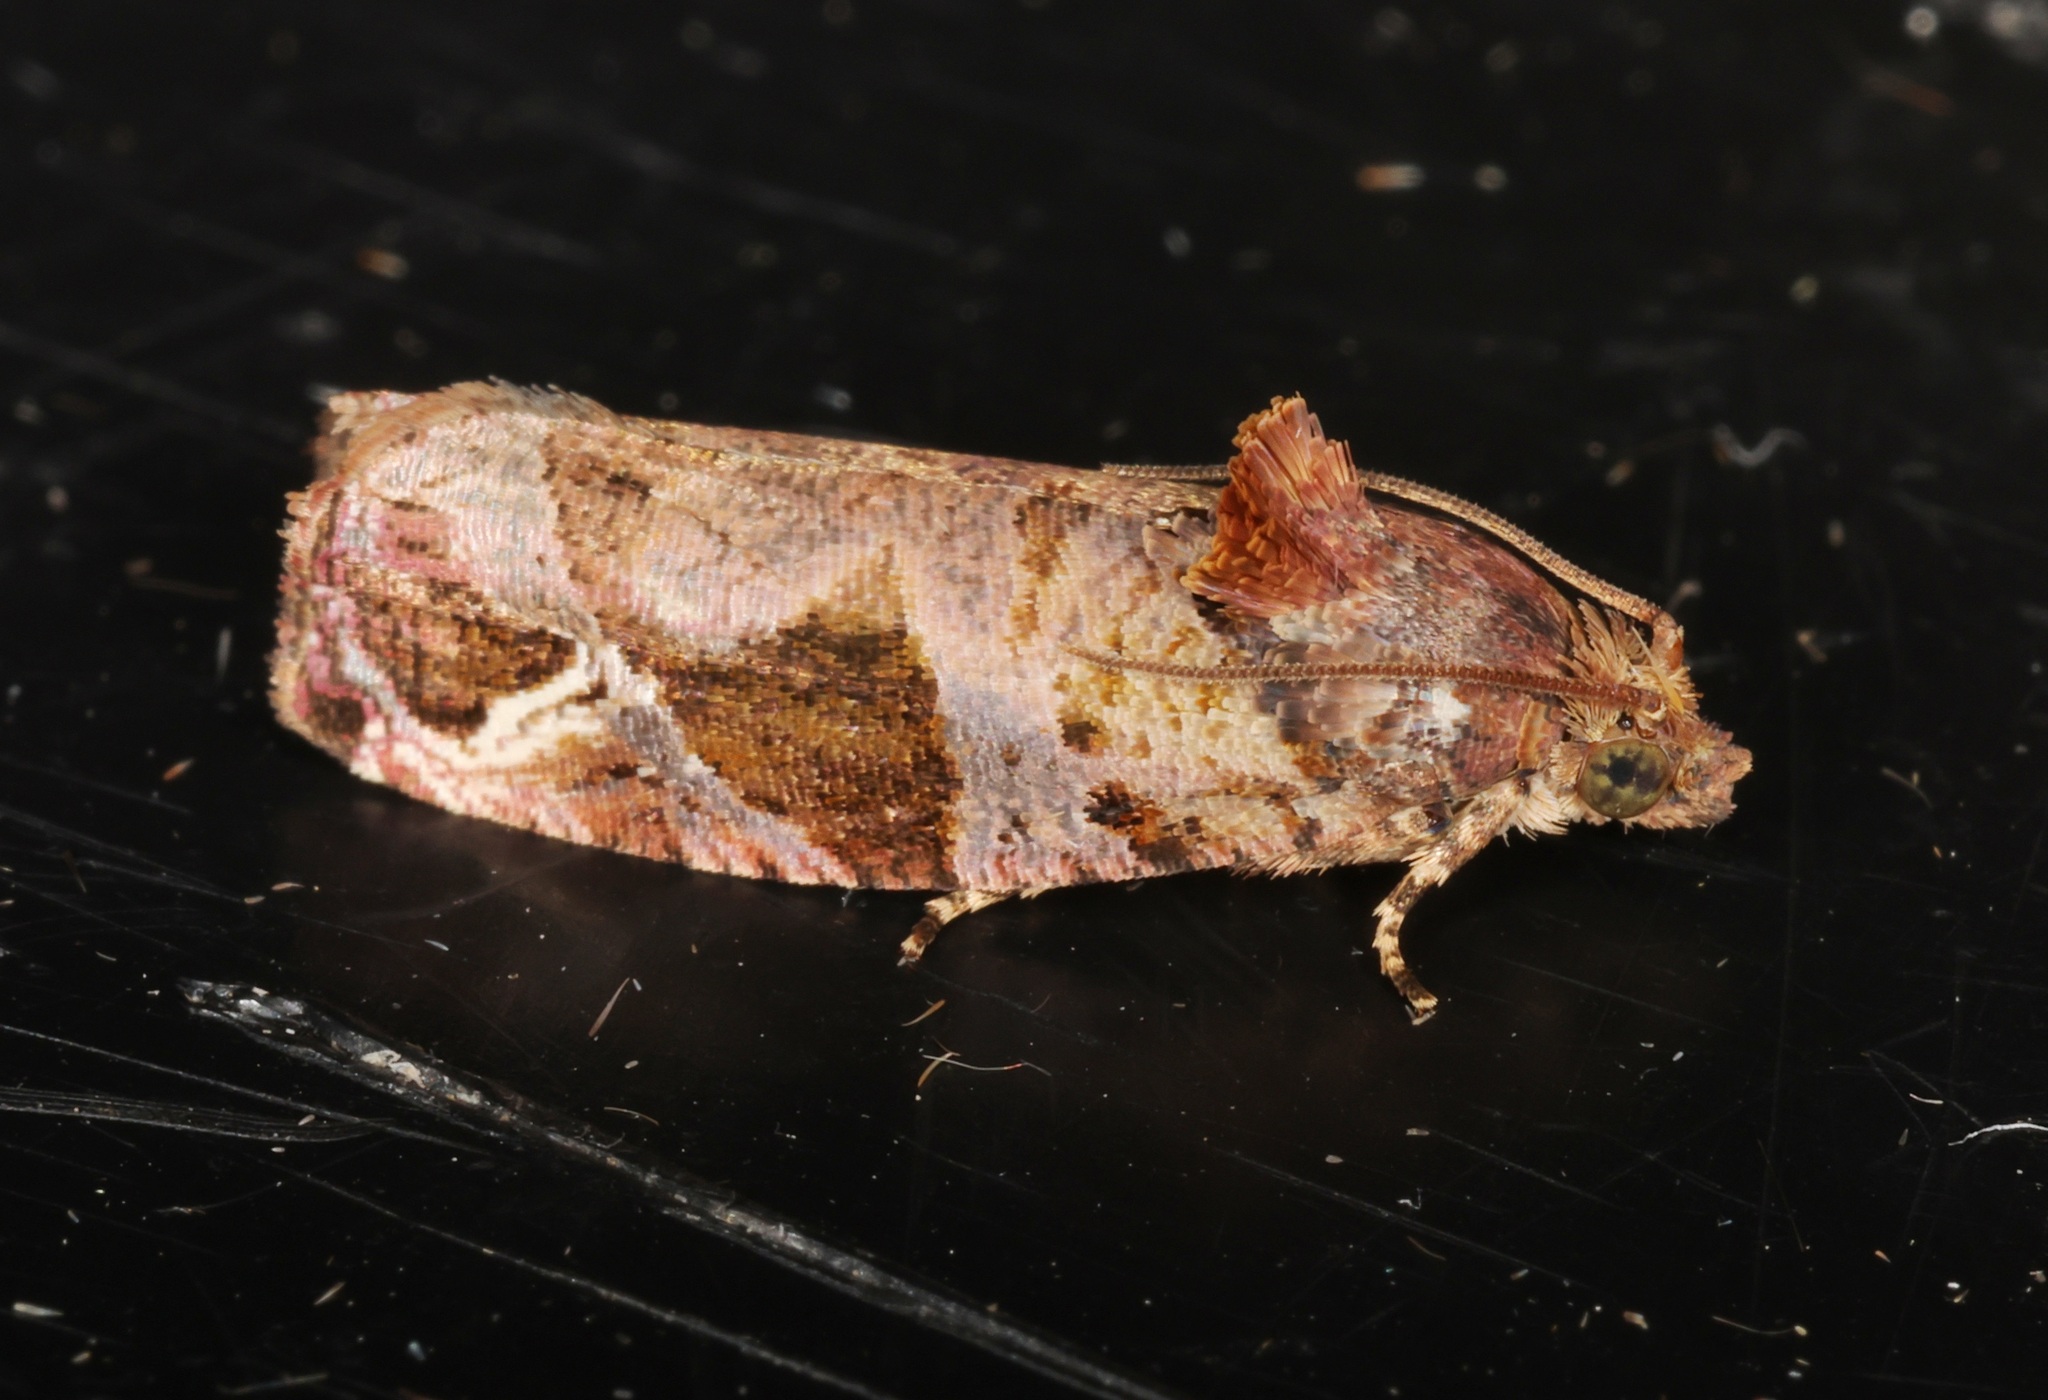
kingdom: Animalia
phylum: Arthropoda
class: Insecta
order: Lepidoptera
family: Tortricidae
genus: Sorolopha
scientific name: Sorolopha plinthograpta
